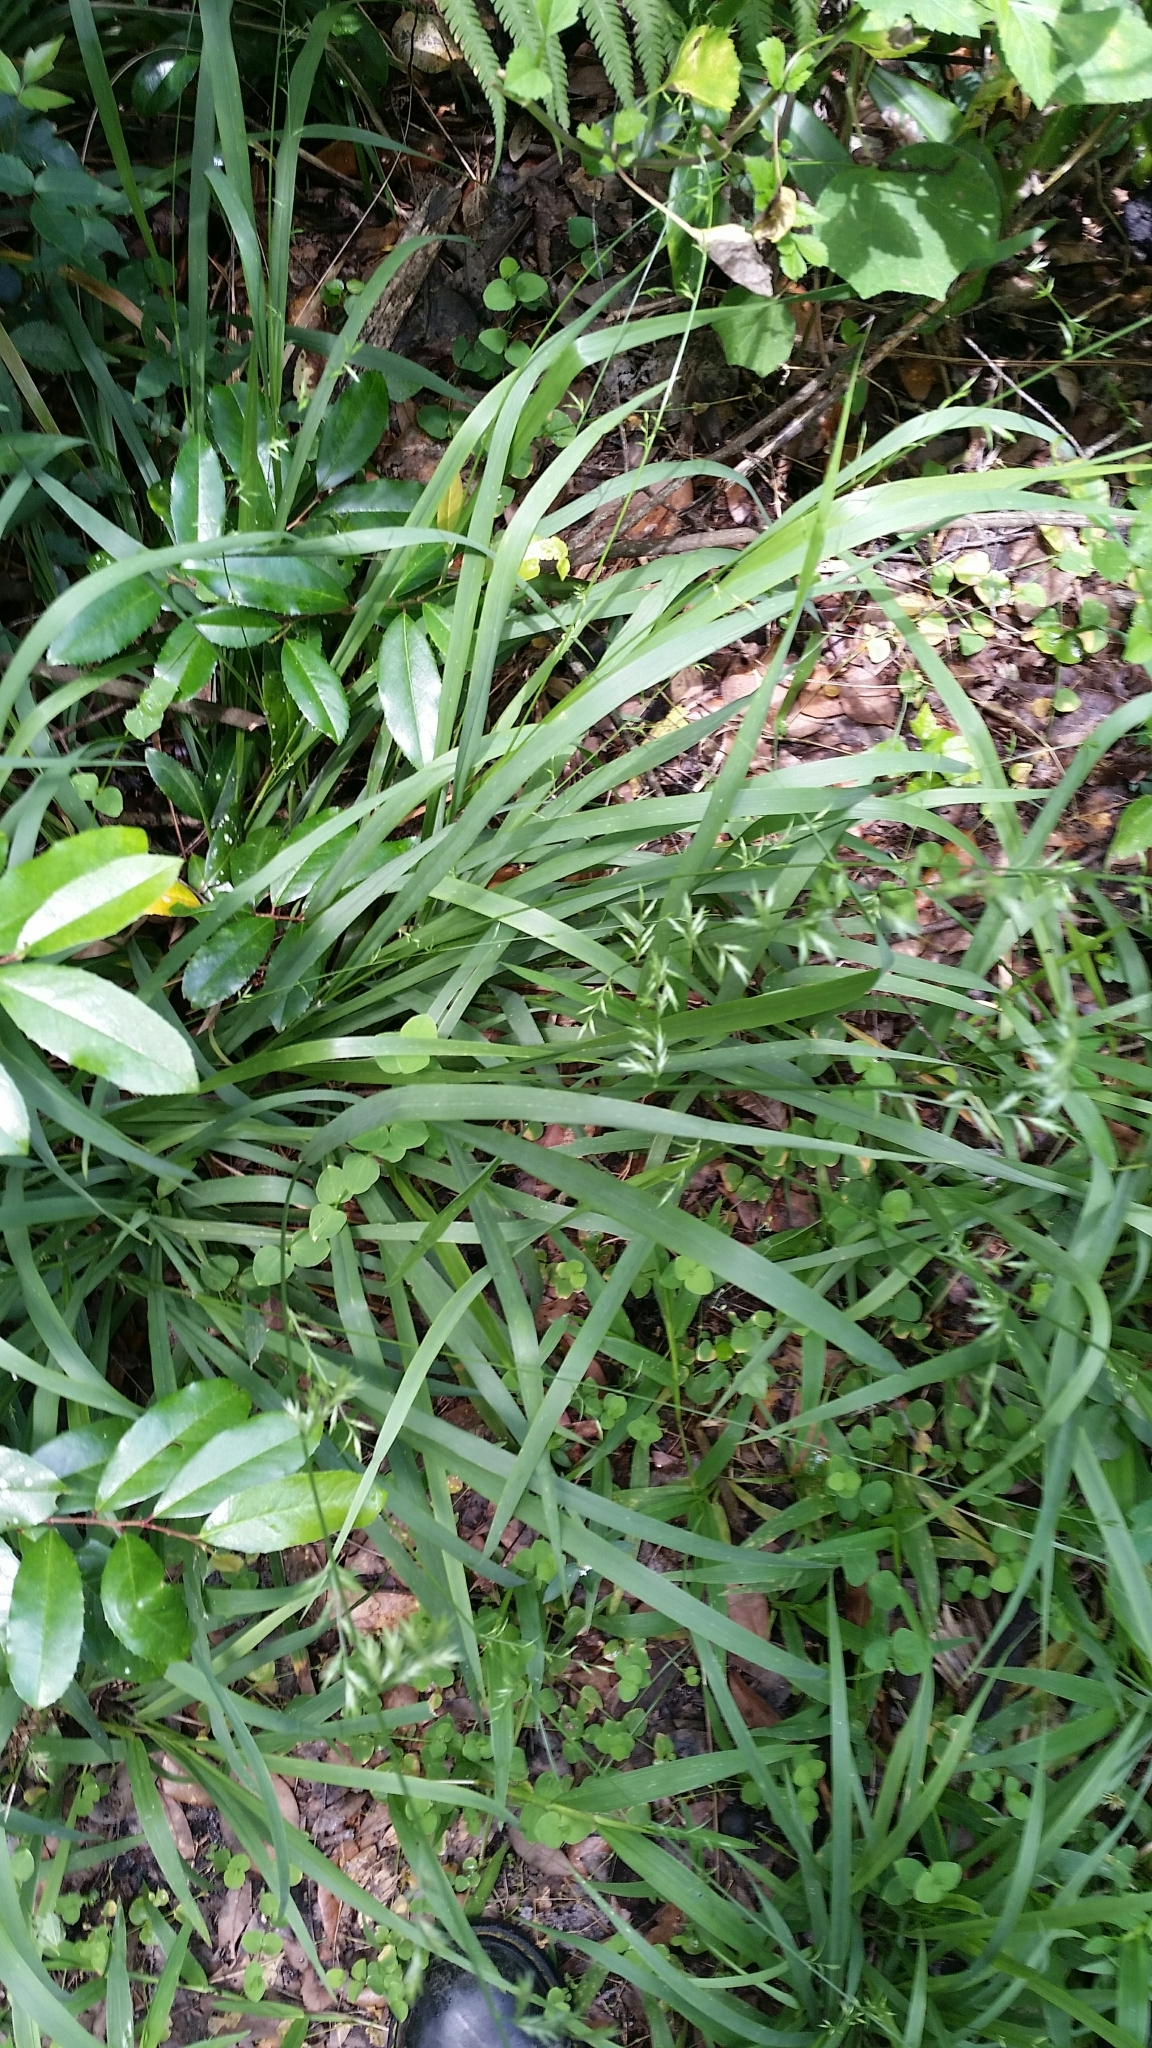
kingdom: Plantae
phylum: Tracheophyta
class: Liliopsida
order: Poales
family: Poaceae
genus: Chasmanthium
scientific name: Chasmanthium laxum
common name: Slender chasmanthium
